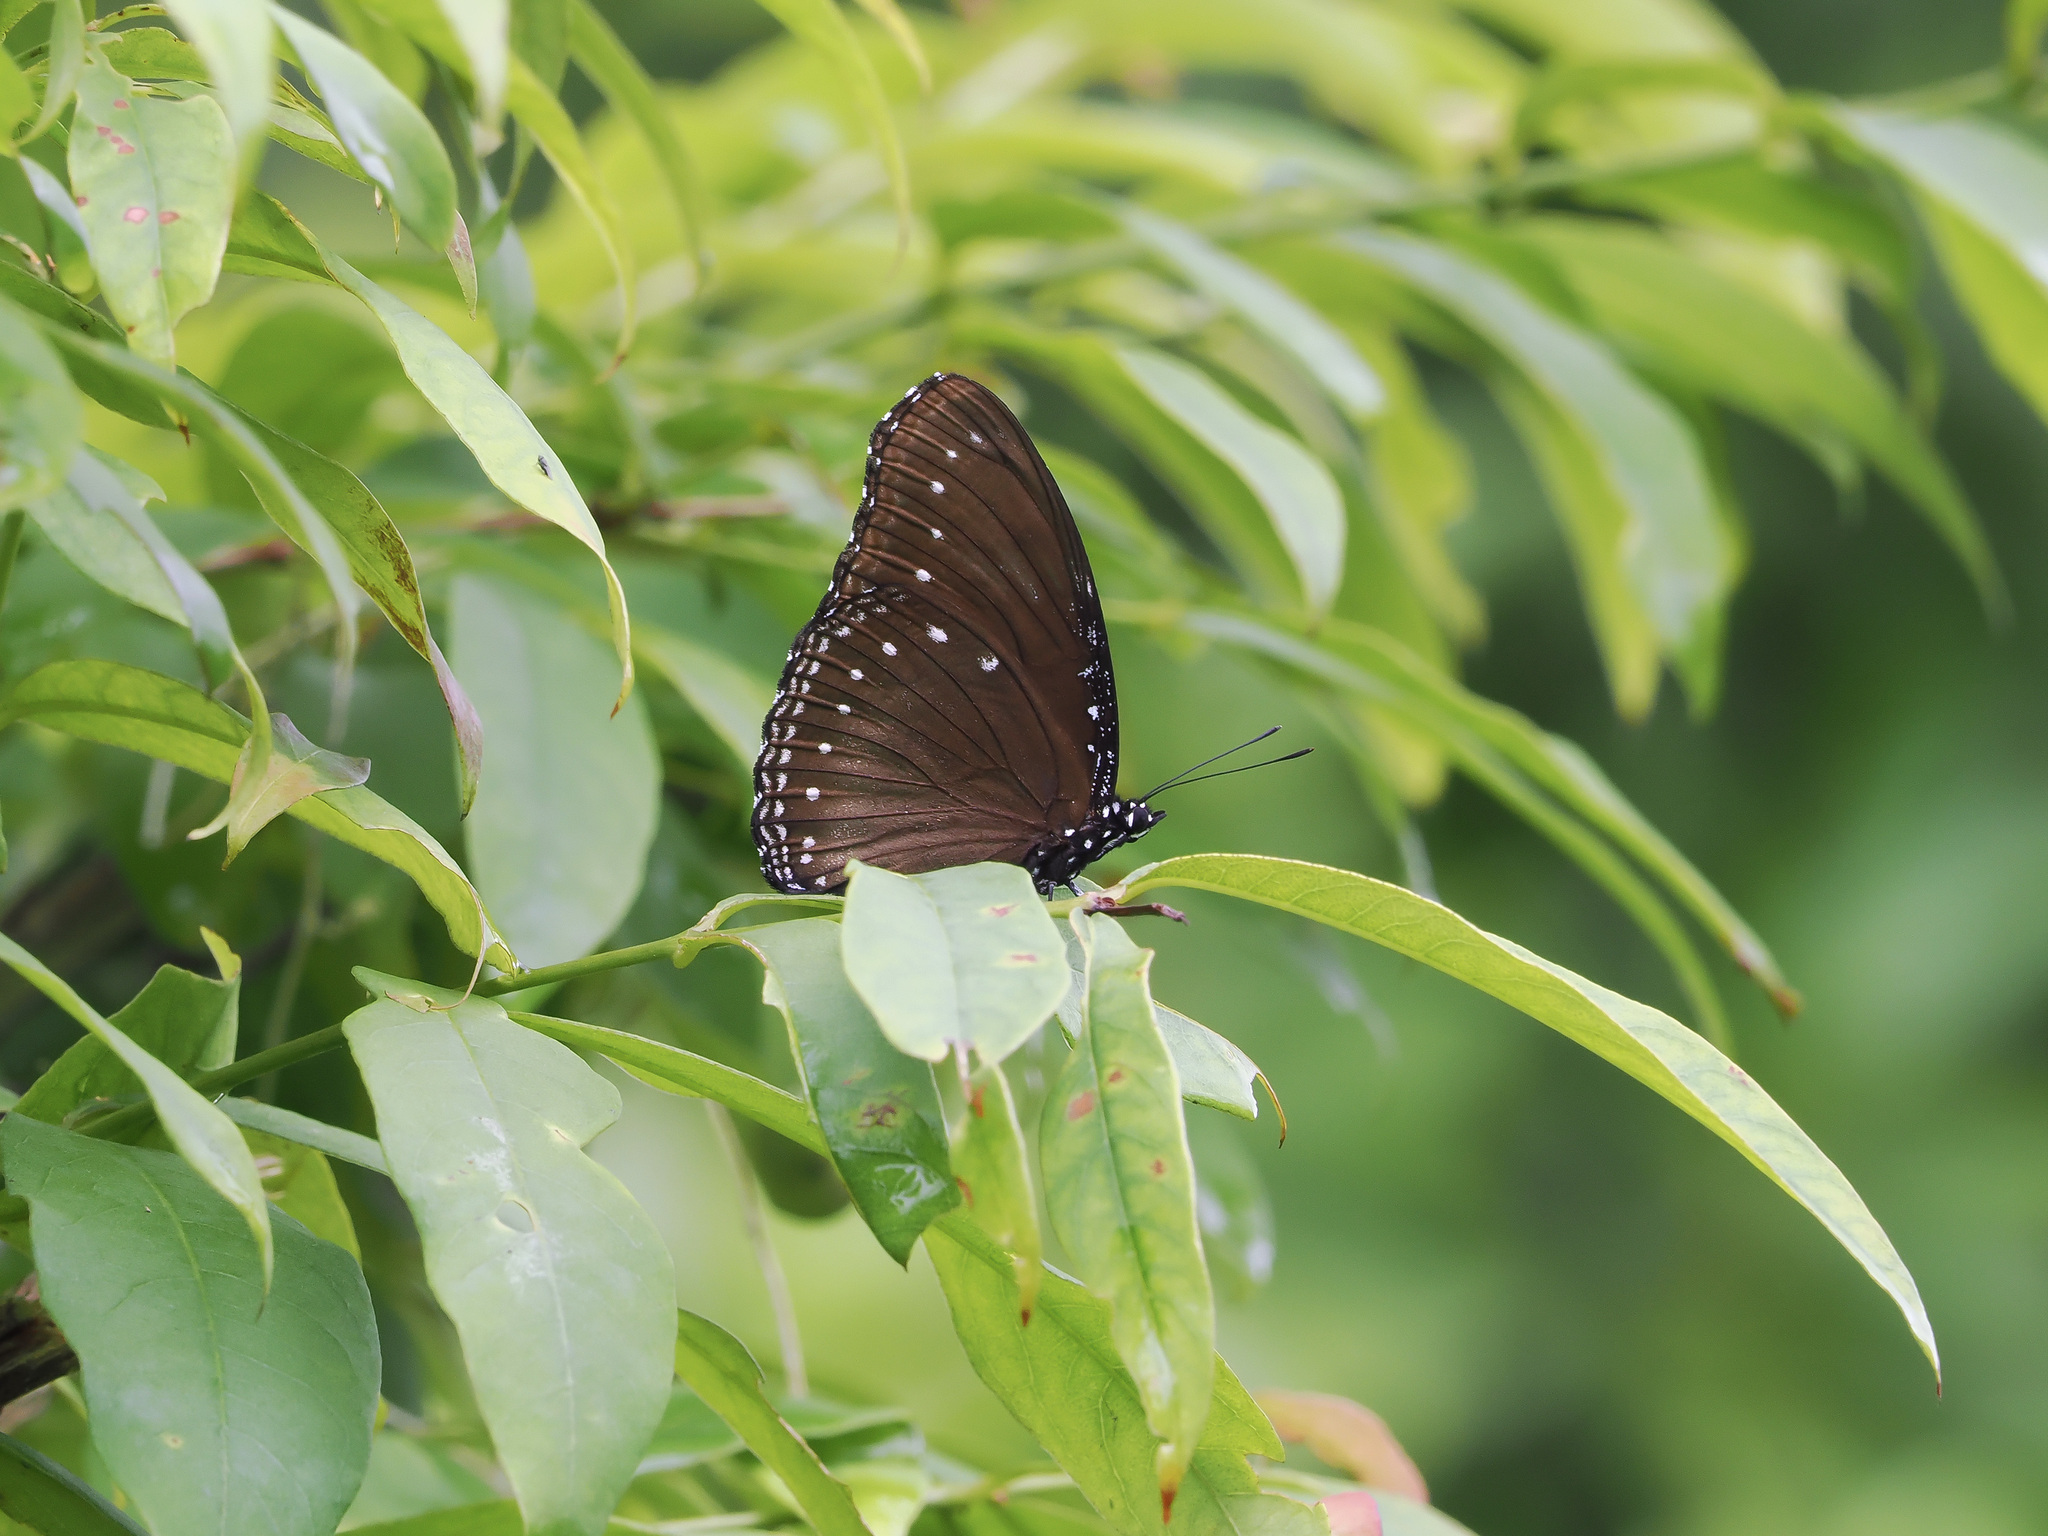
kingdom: Animalia
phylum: Arthropoda
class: Insecta
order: Lepidoptera
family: Nymphalidae
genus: Hypolimnas
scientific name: Hypolimnas anomala
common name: Malayan eggfly
